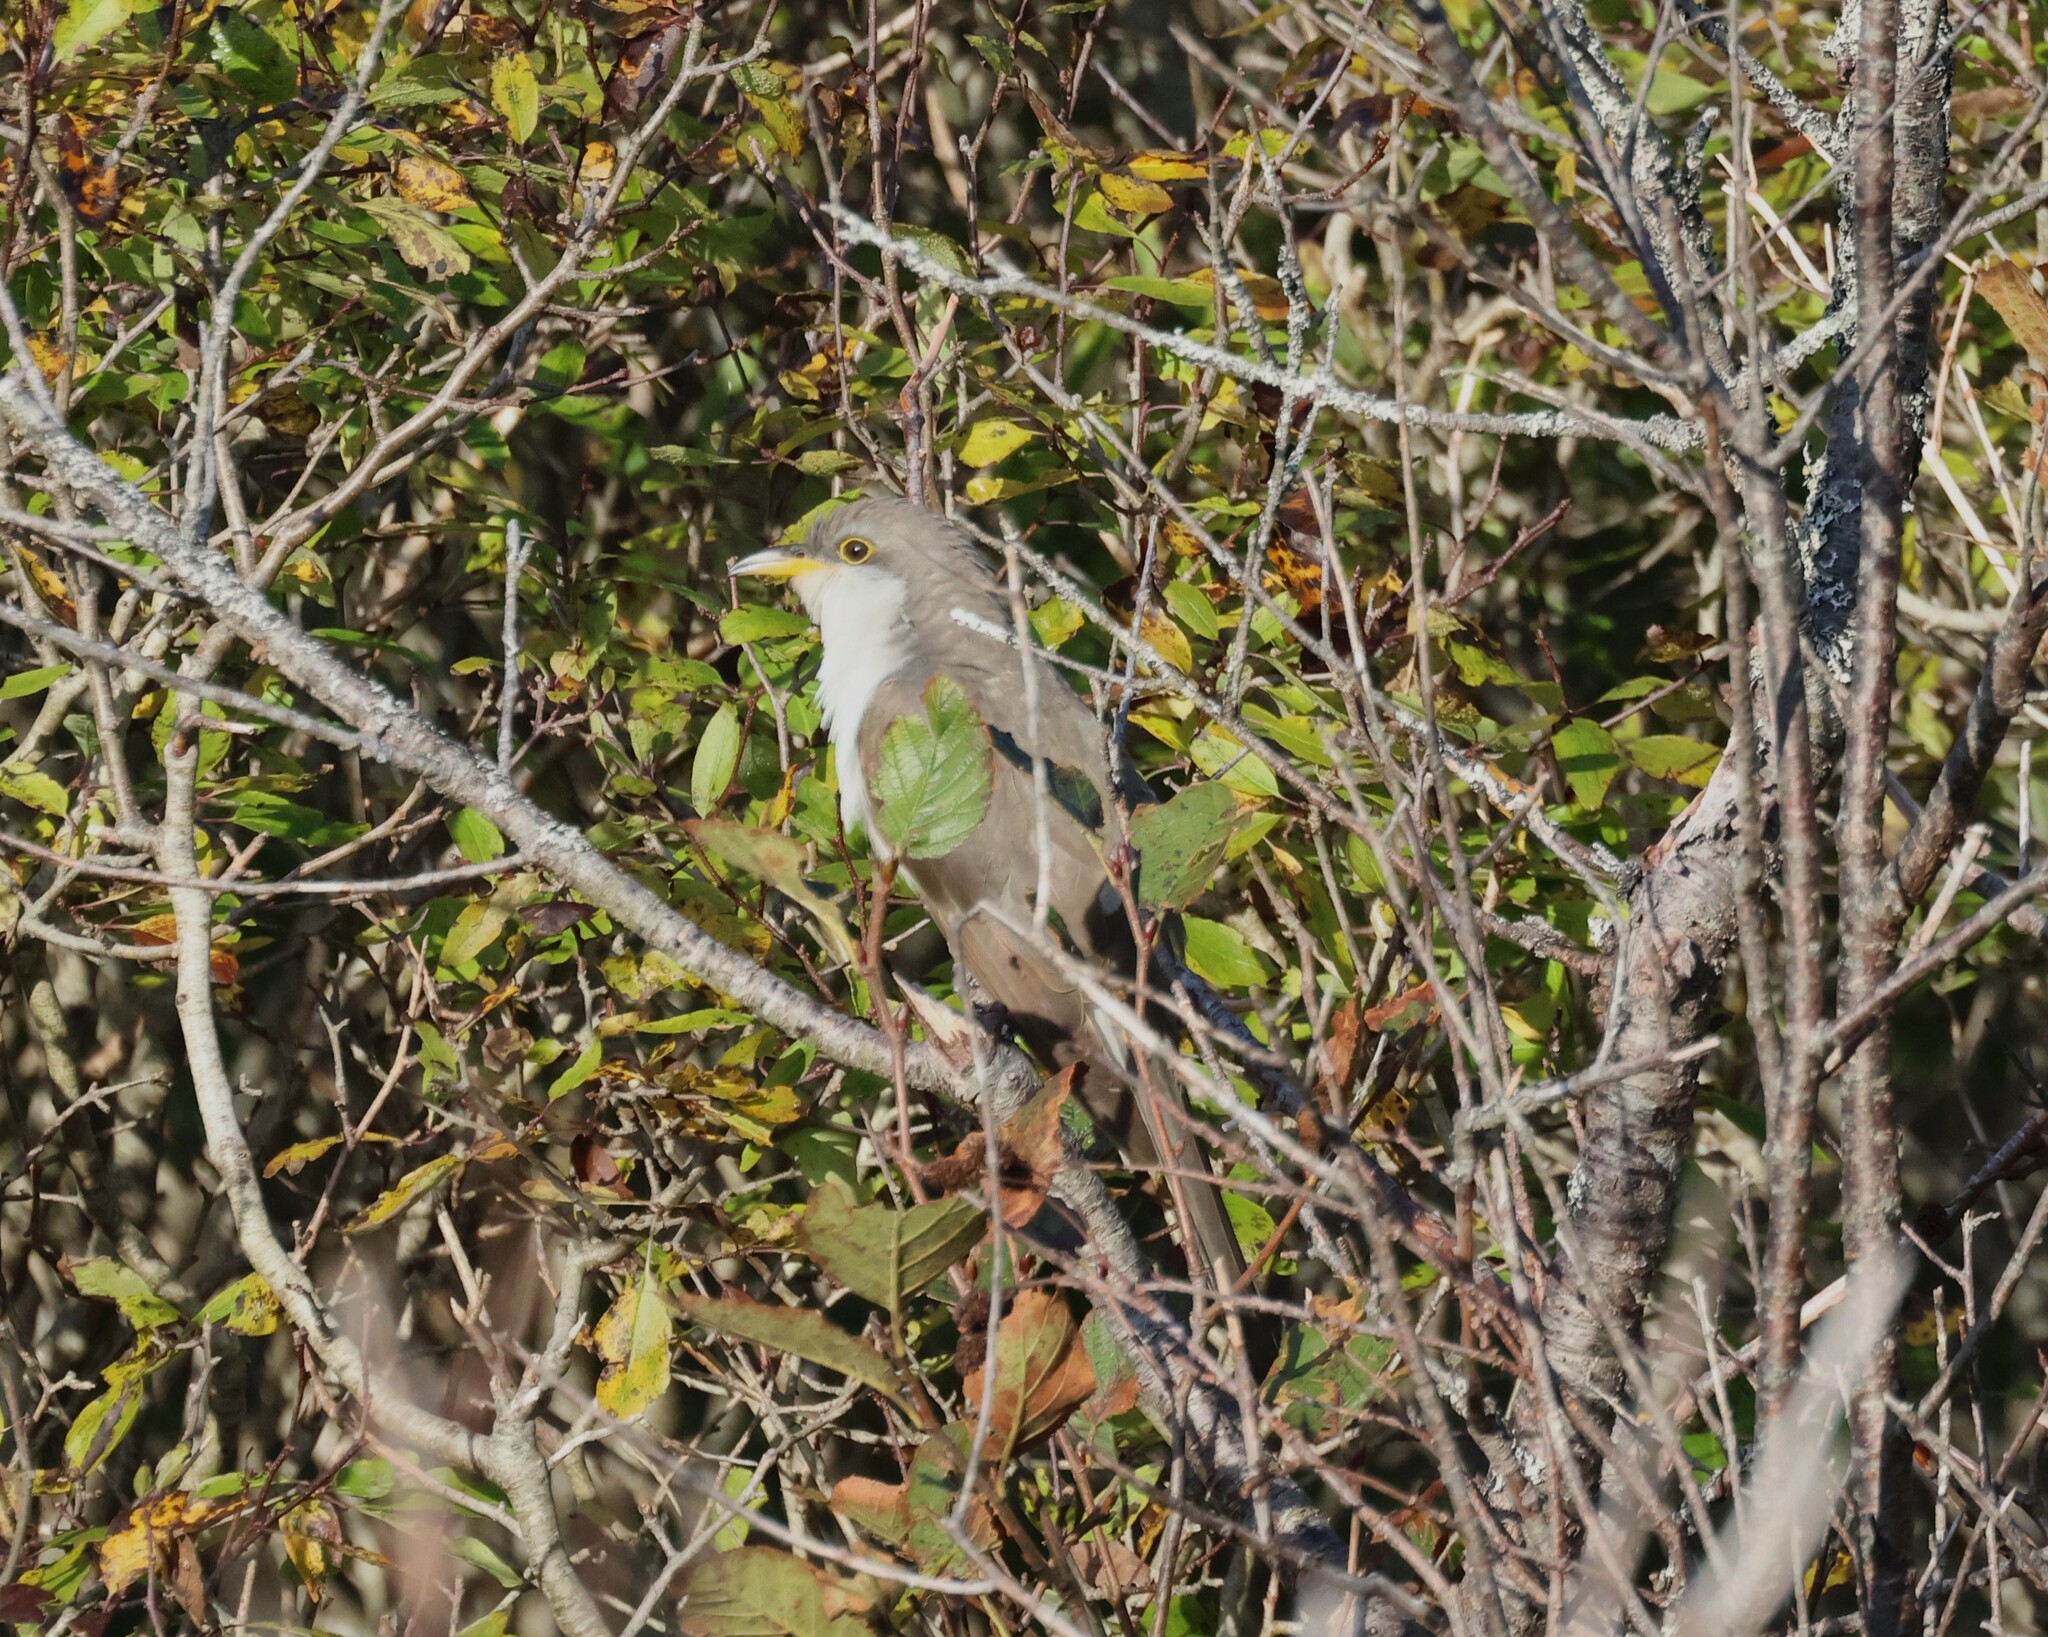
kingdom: Animalia
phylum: Chordata
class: Aves
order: Cuculiformes
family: Cuculidae
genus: Coccyzus
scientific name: Coccyzus americanus
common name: Yellow-billed cuckoo
